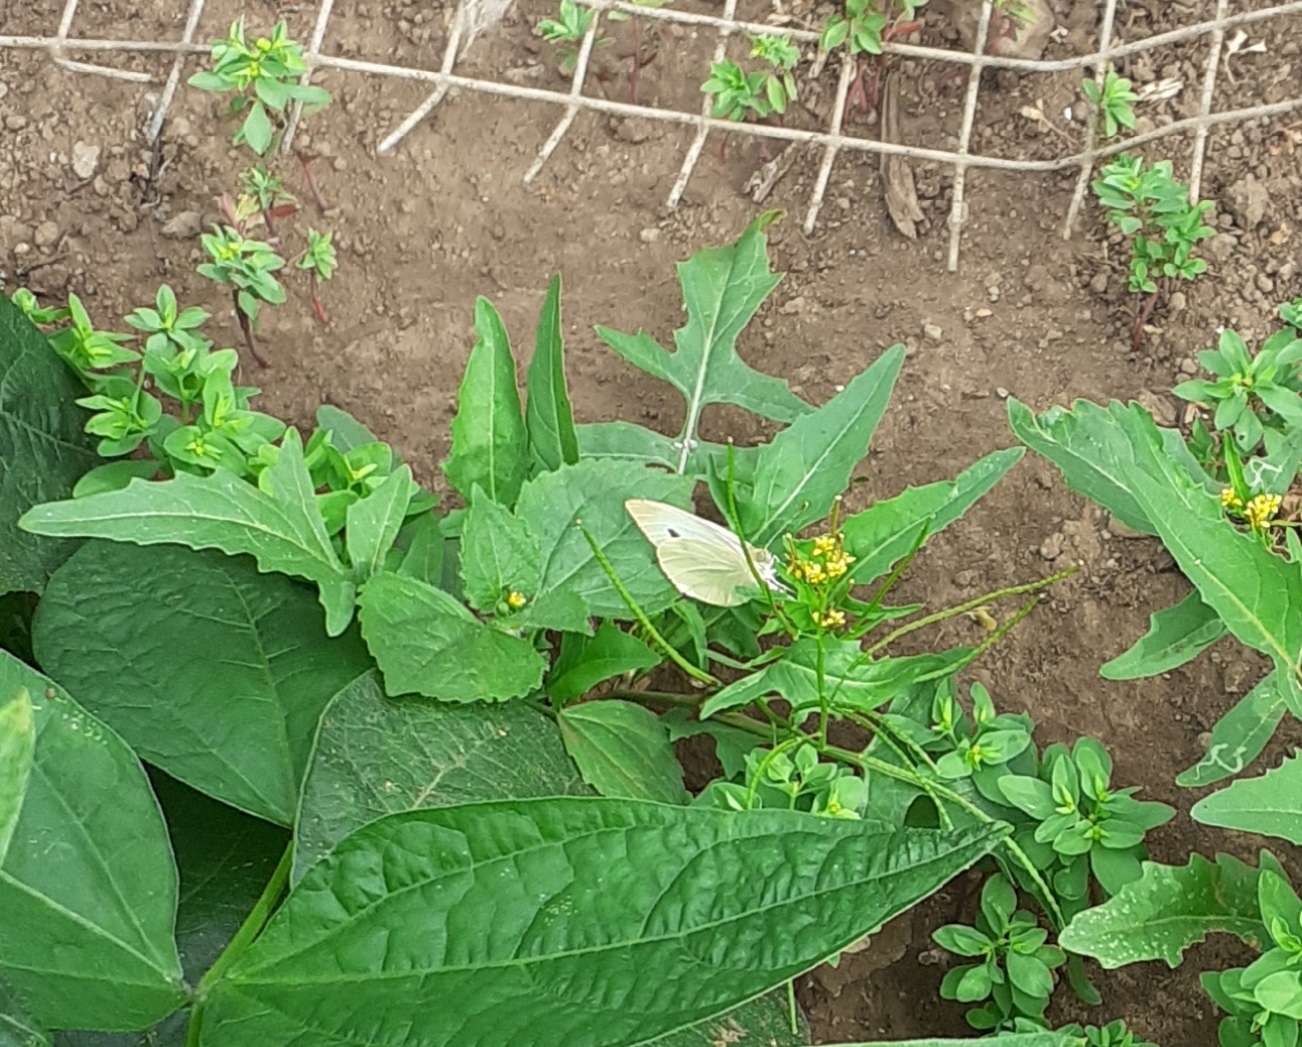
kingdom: Animalia
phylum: Arthropoda
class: Insecta
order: Lepidoptera
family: Pieridae
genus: Pieris
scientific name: Pieris rapae
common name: Small white
